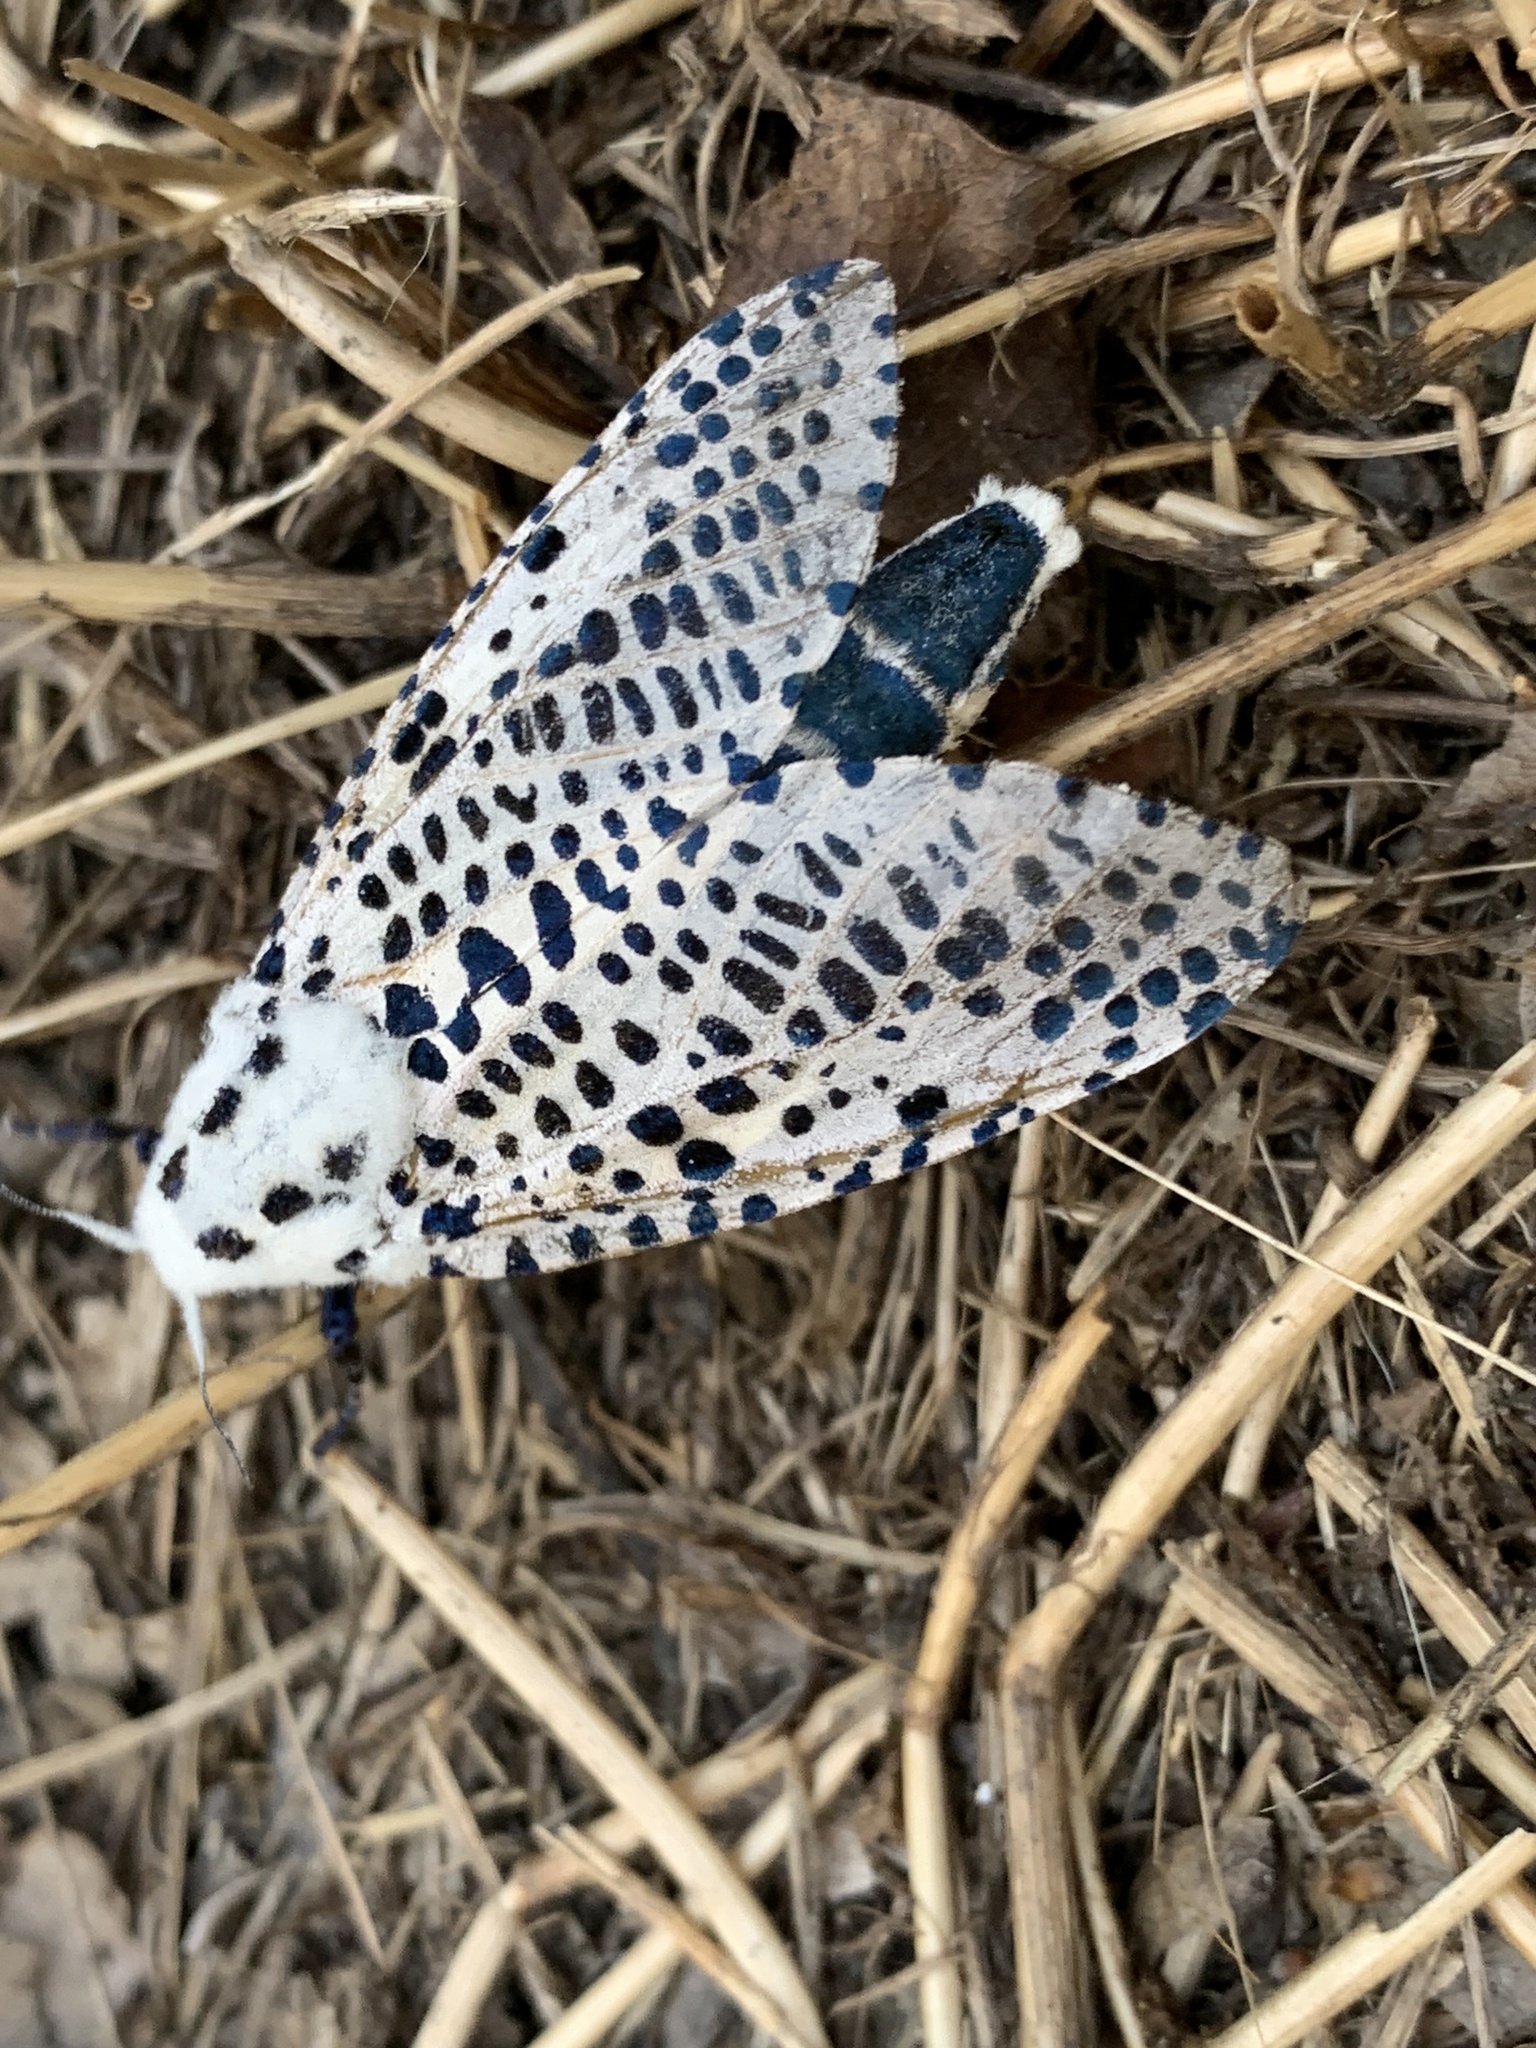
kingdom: Animalia
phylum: Arthropoda
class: Insecta
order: Lepidoptera
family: Cossidae
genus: Zeuzera
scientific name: Zeuzera pyrina
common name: Leopard moth
